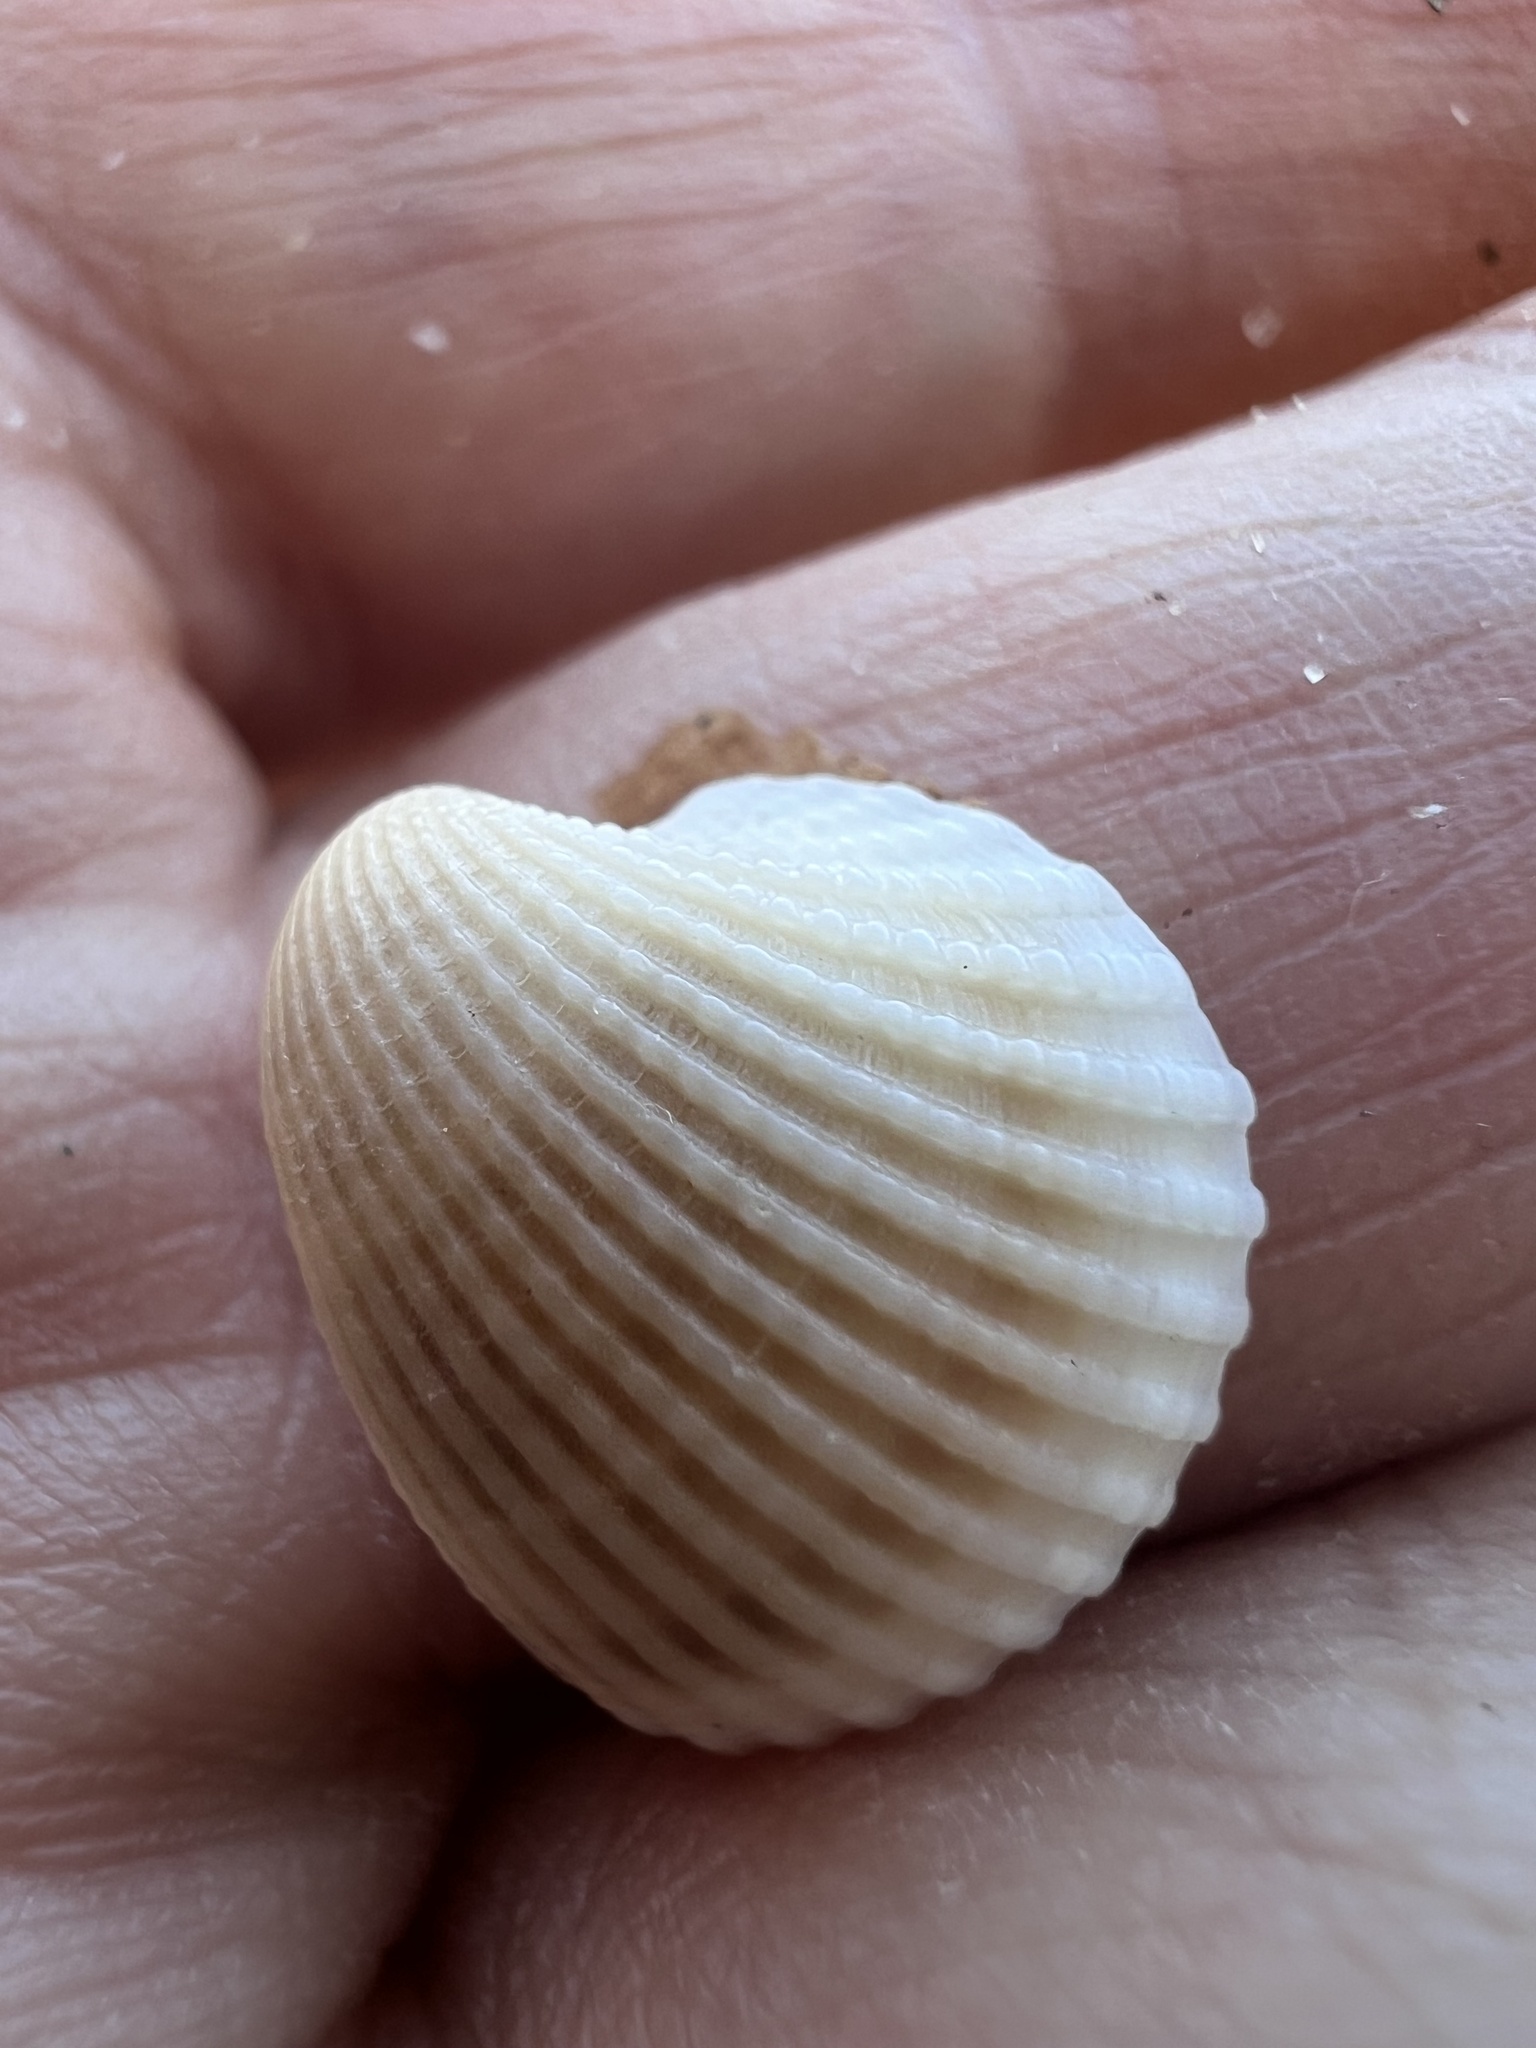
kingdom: Animalia
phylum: Mollusca
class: Bivalvia
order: Arcida
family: Arcidae
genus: Anadara
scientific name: Anadara pilula
